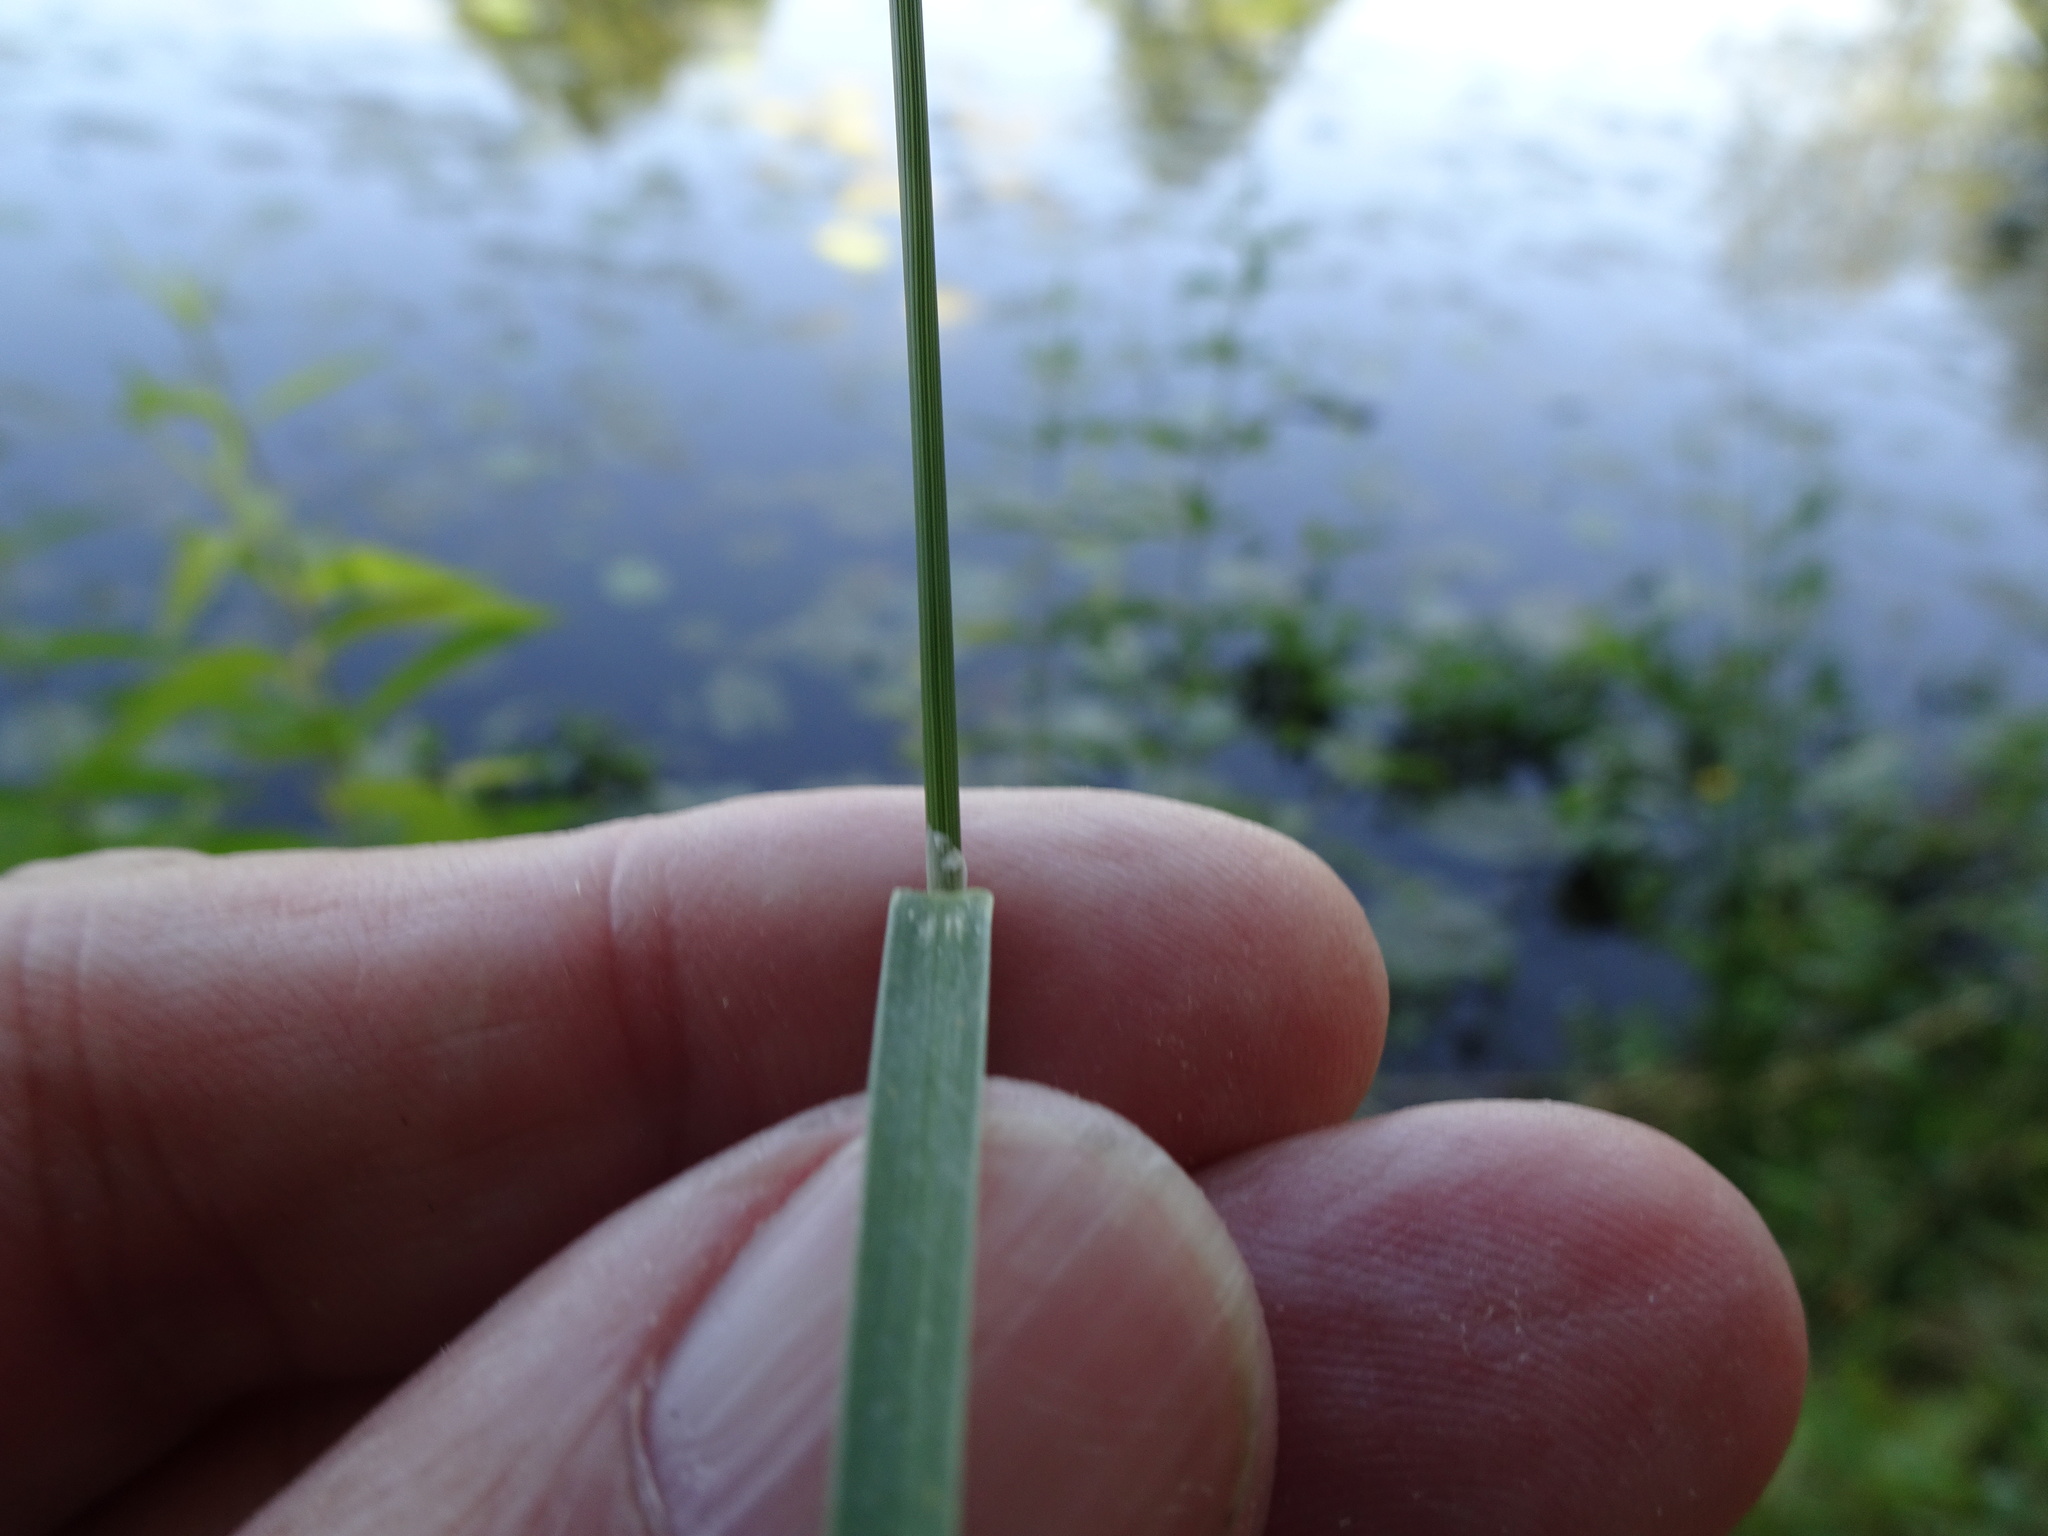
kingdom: Plantae
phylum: Tracheophyta
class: Liliopsida
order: Poales
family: Poaceae
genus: Poa
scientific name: Poa palustris
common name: Swamp meadow-grass
